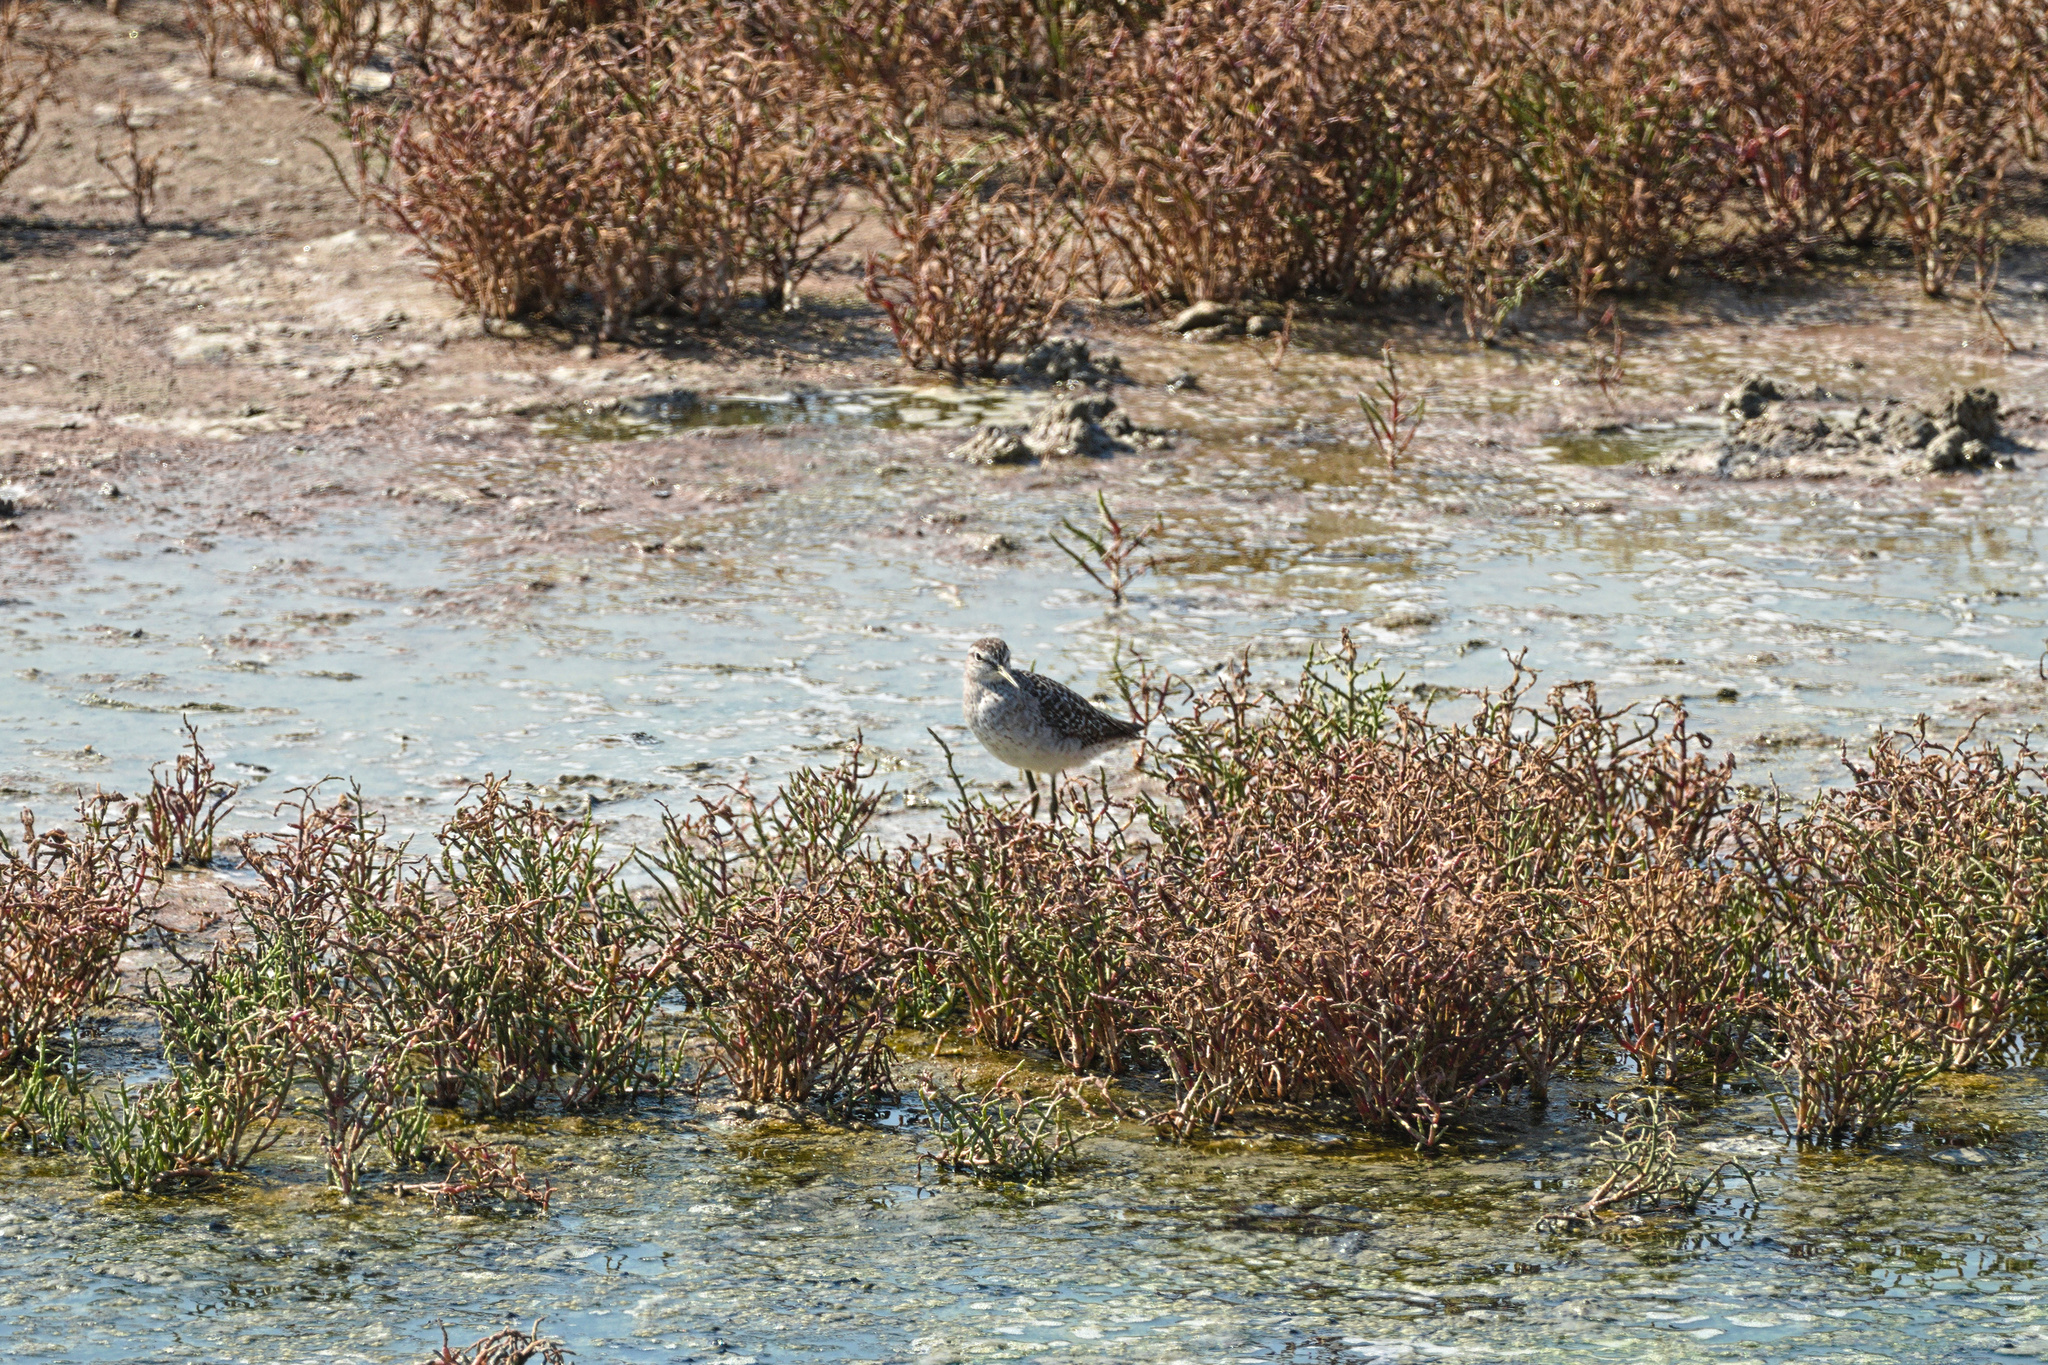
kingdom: Animalia
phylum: Chordata
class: Aves
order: Charadriiformes
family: Scolopacidae
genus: Tringa
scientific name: Tringa glareola
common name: Wood sandpiper
